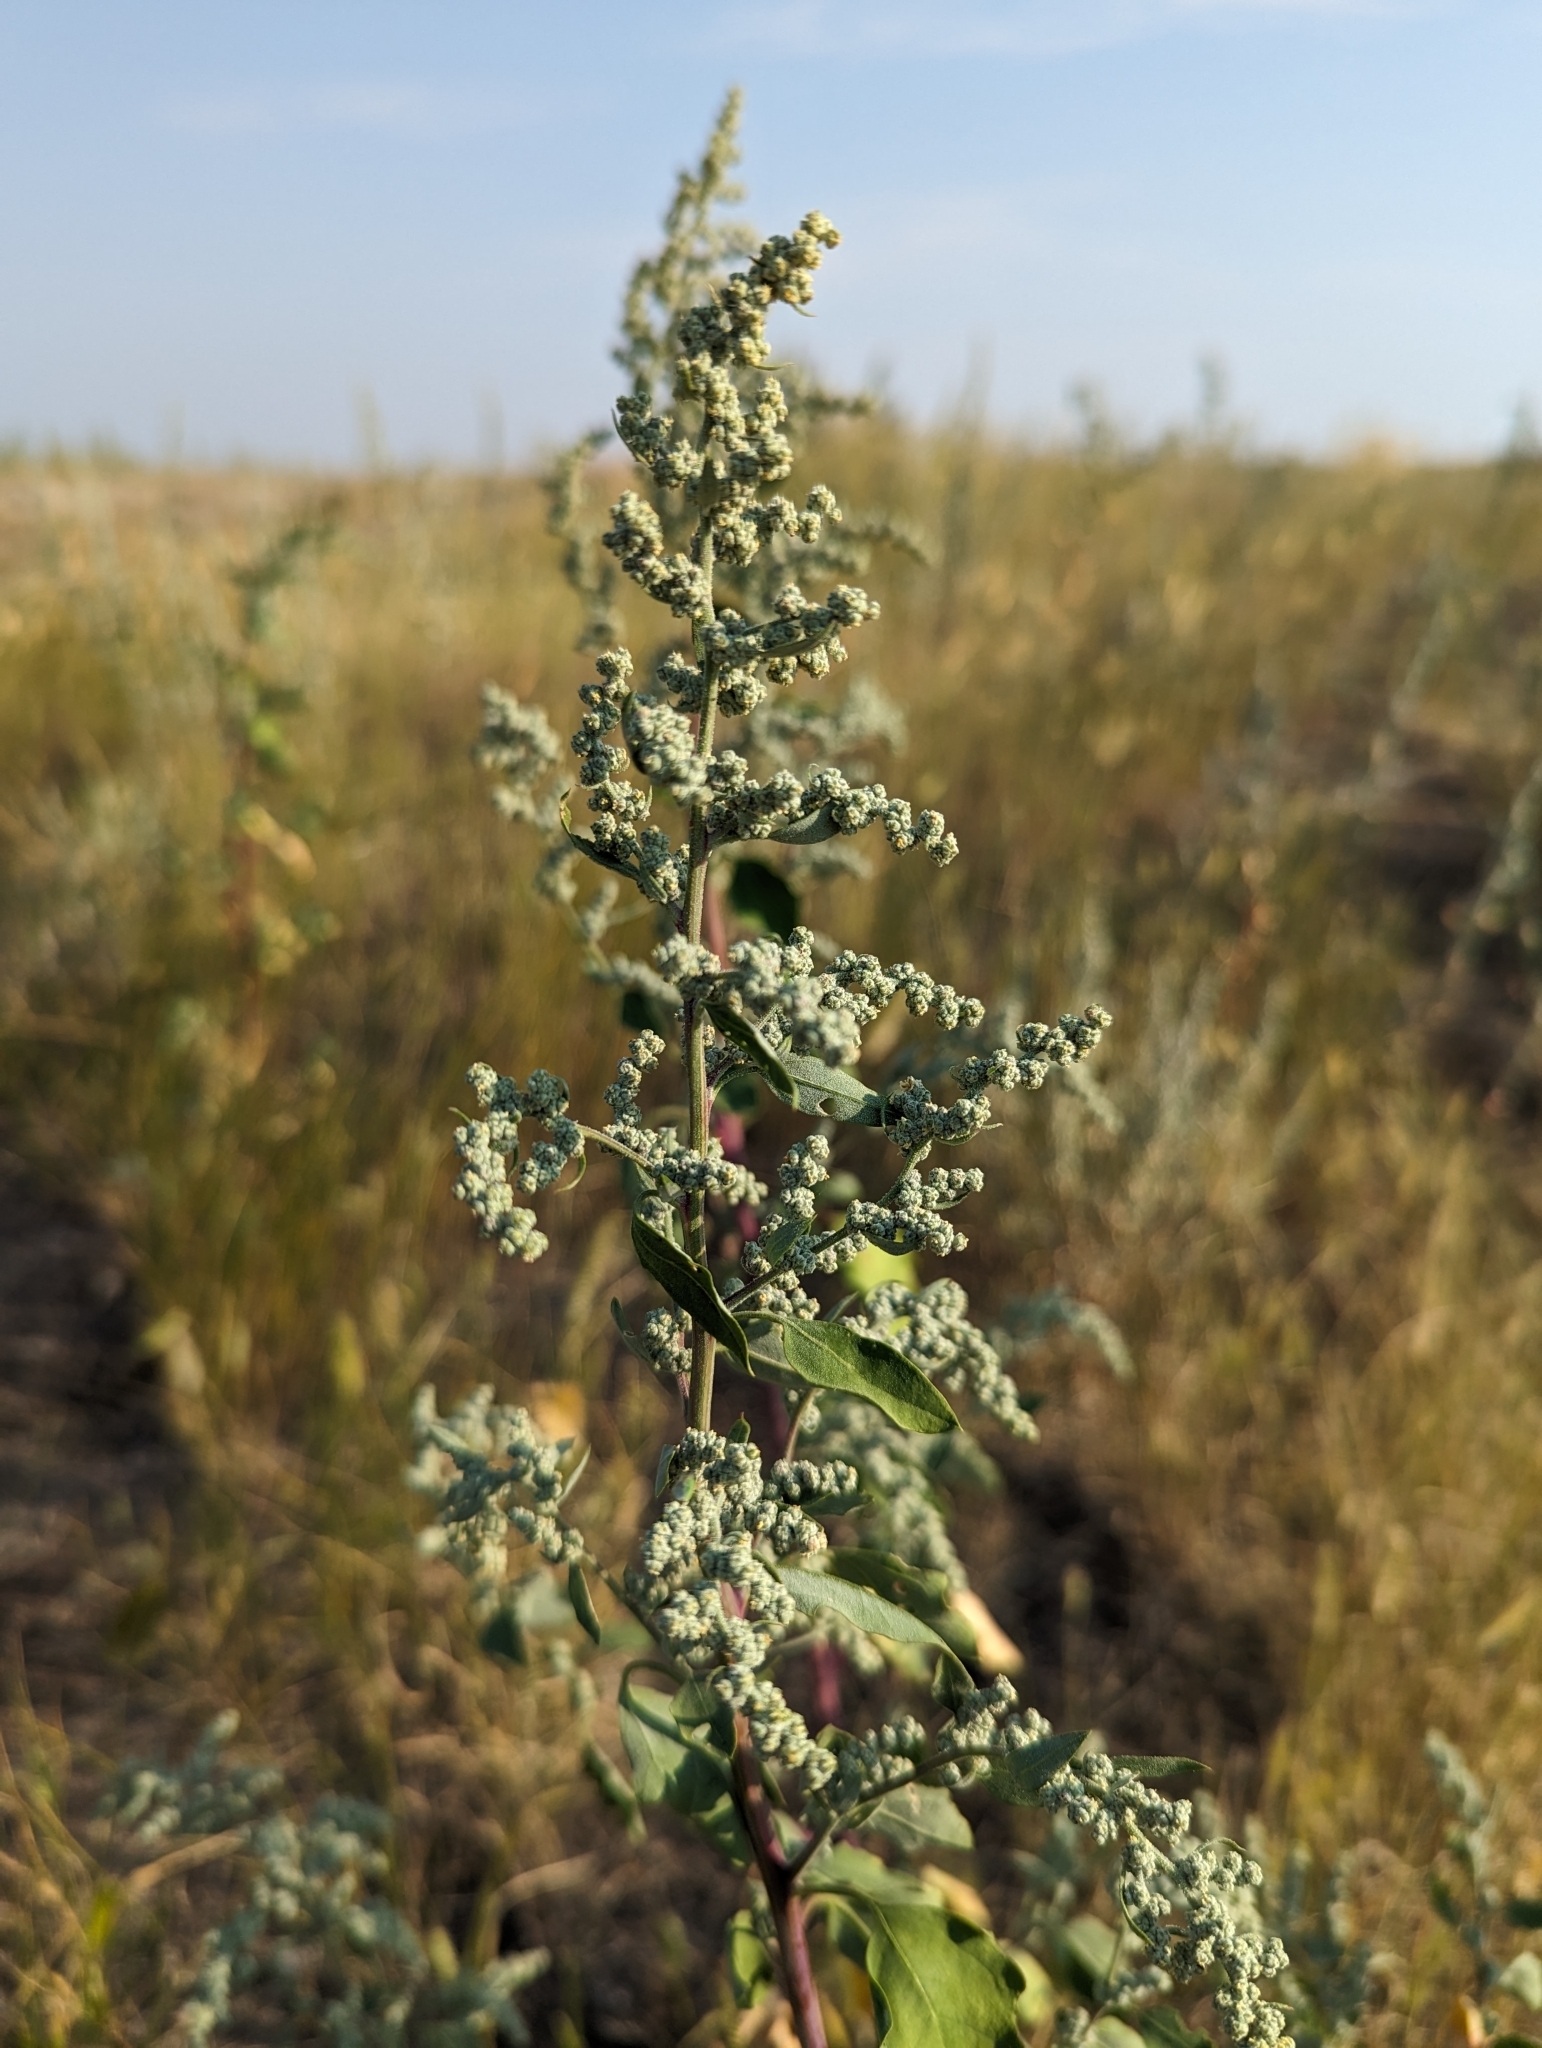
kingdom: Plantae
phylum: Tracheophyta
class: Magnoliopsida
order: Caryophyllales
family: Amaranthaceae
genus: Chenopodium
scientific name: Chenopodium album
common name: Fat-hen
